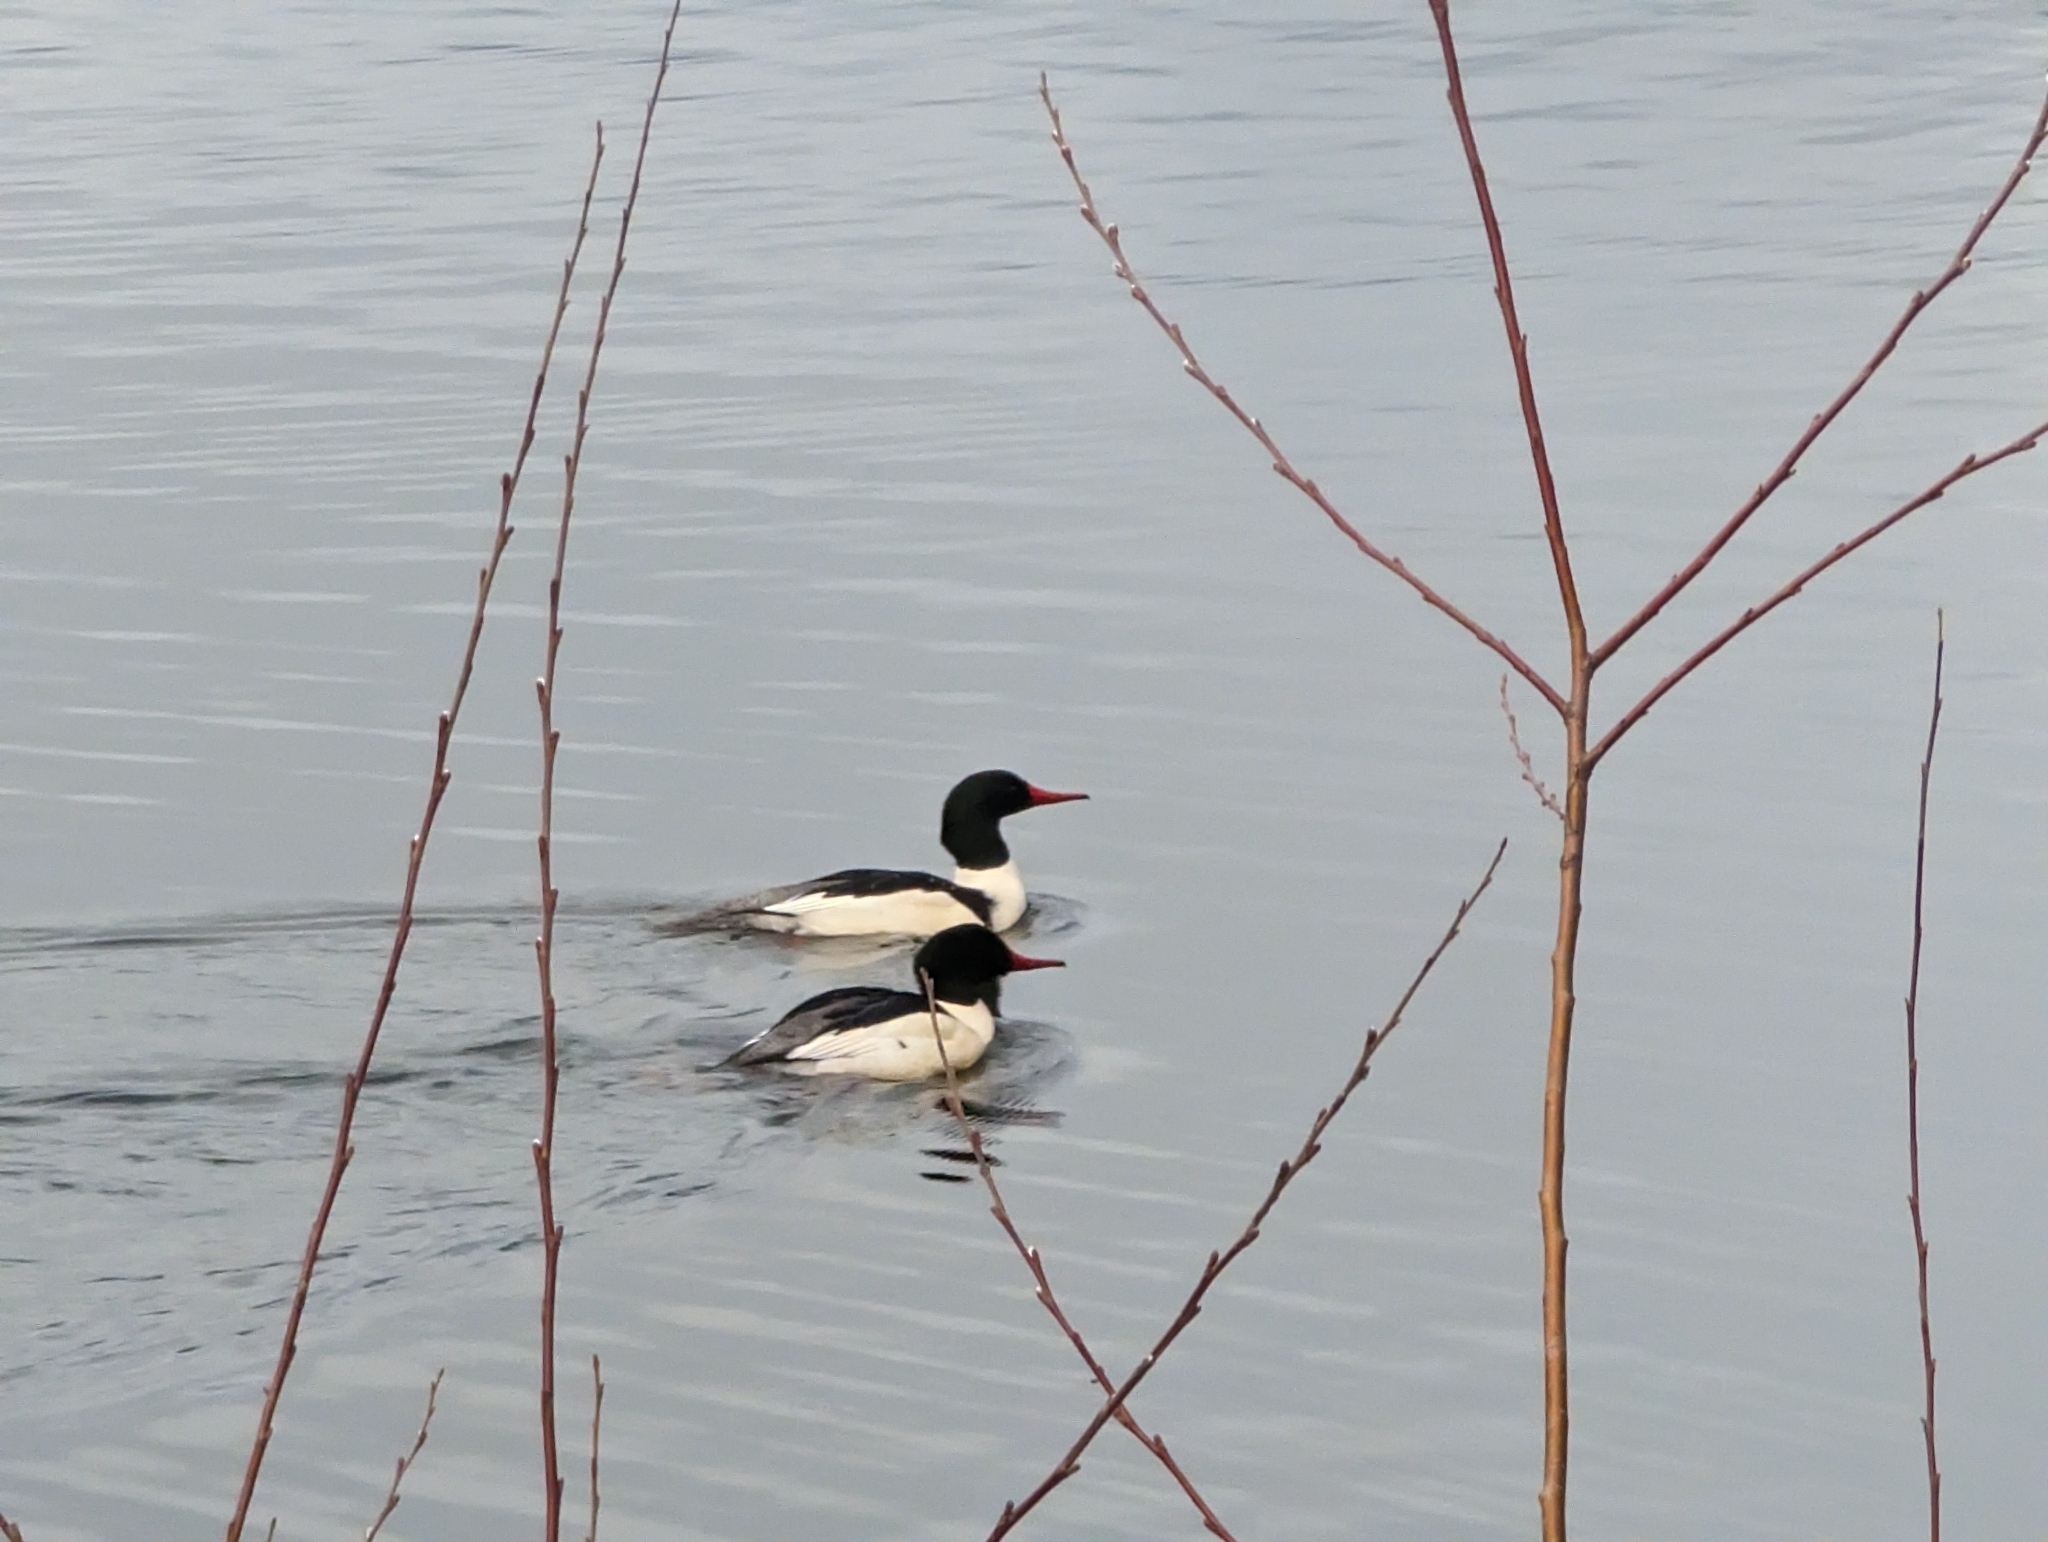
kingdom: Animalia
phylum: Chordata
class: Aves
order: Anseriformes
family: Anatidae
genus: Mergus
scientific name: Mergus merganser
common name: Common merganser
